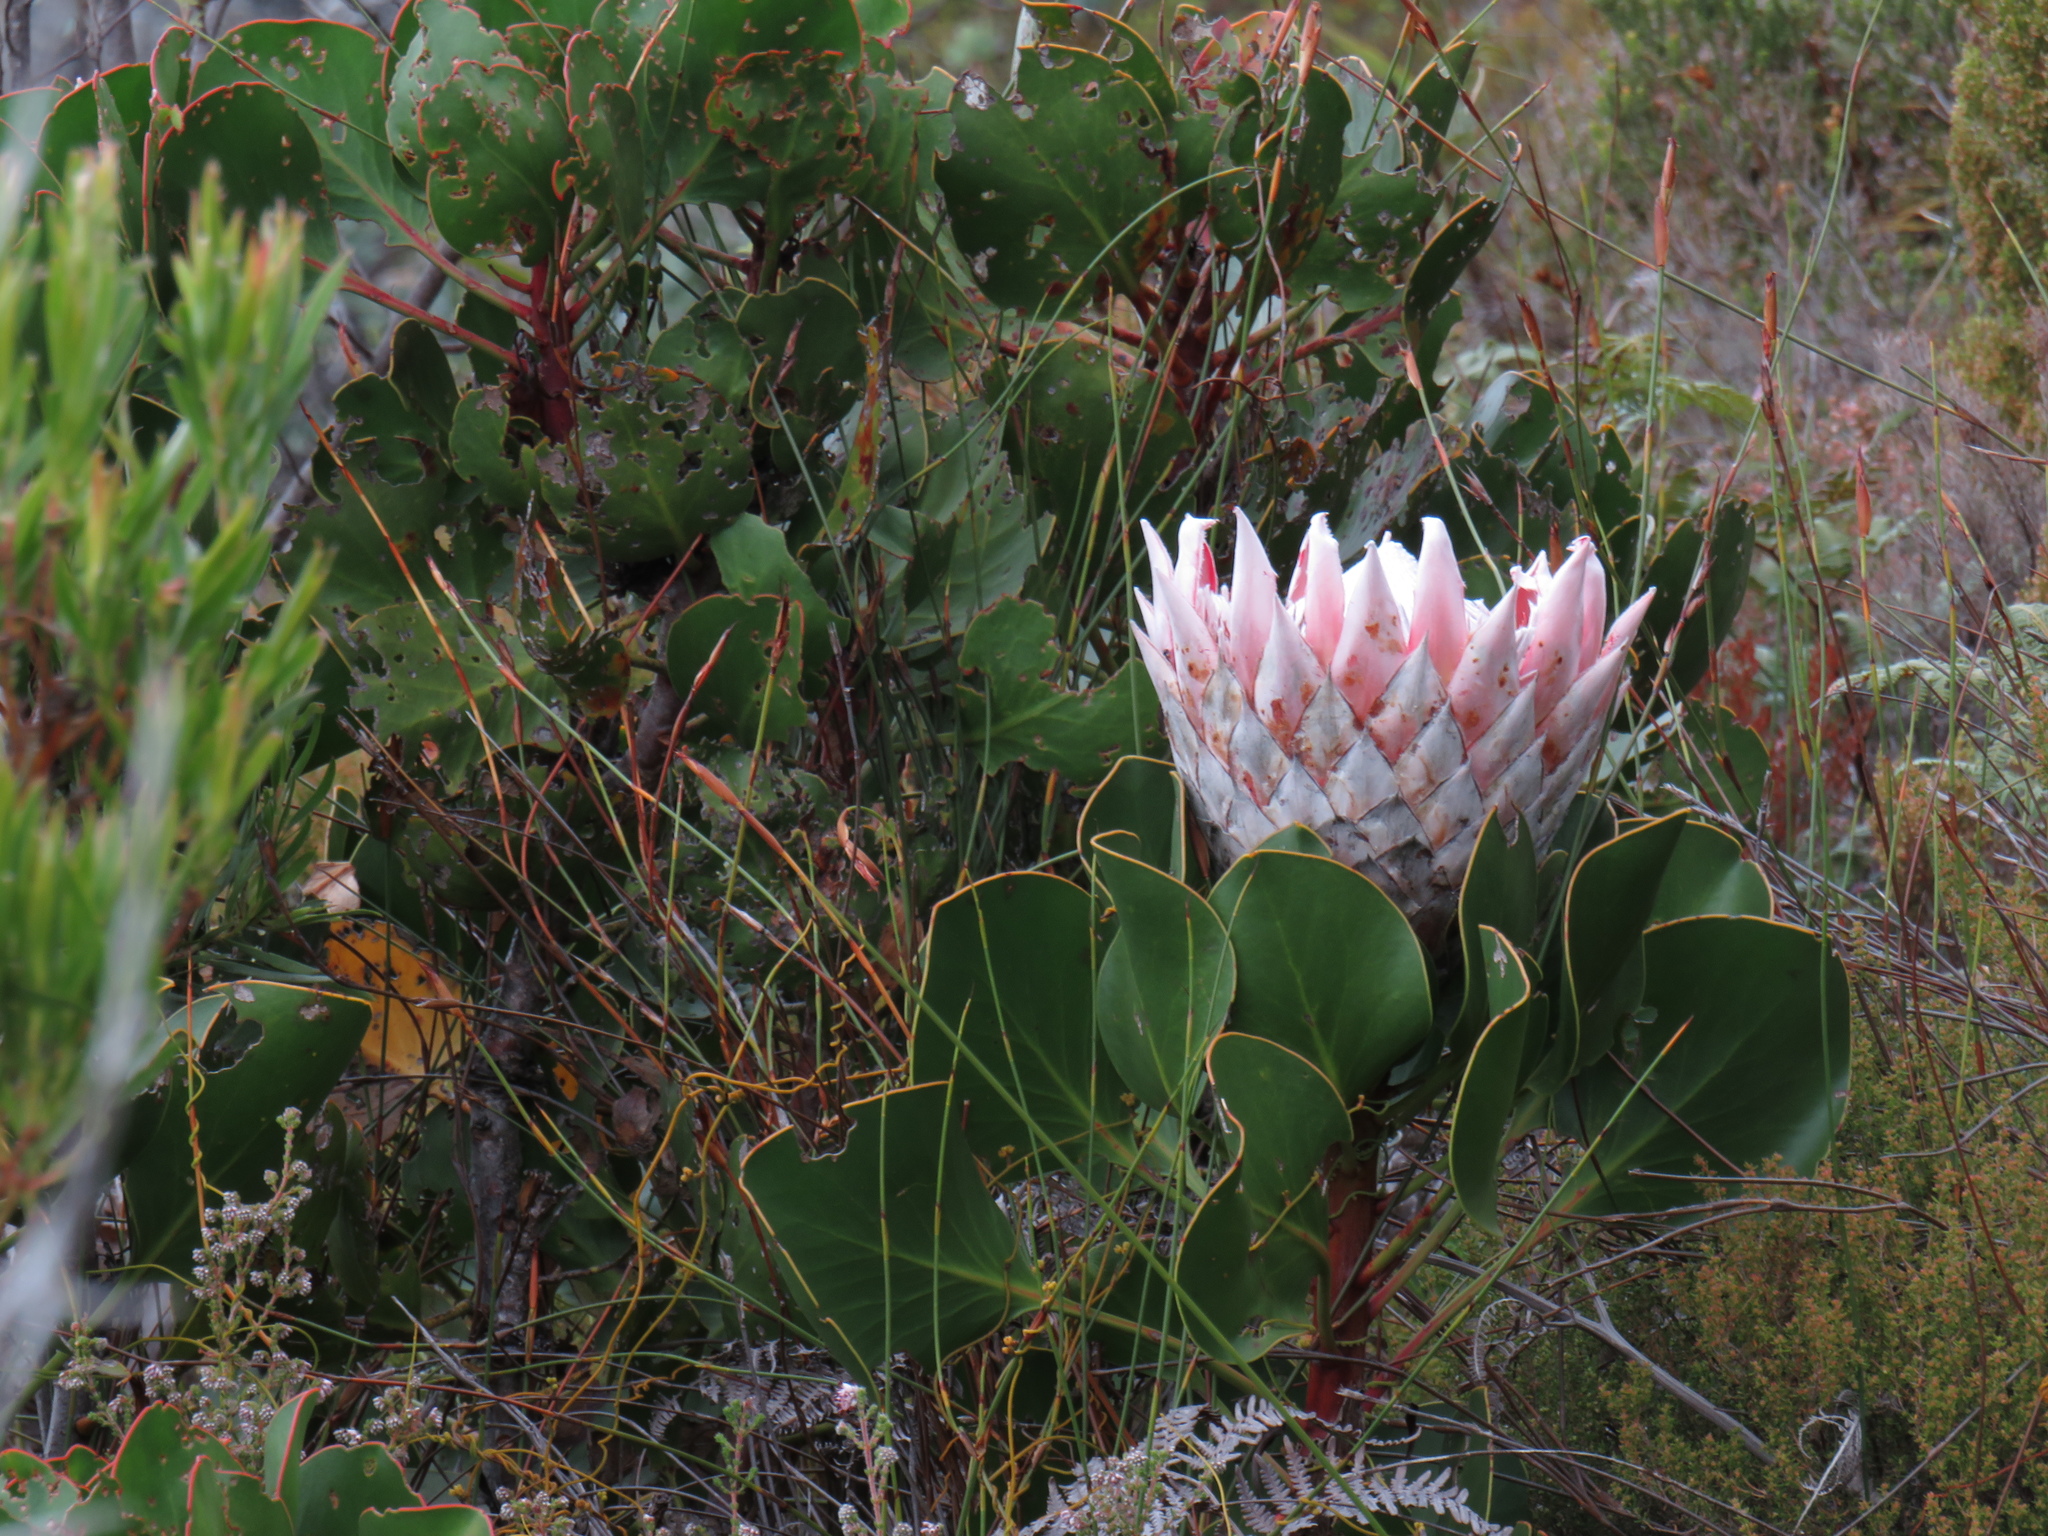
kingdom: Plantae
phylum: Tracheophyta
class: Magnoliopsida
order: Proteales
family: Proteaceae
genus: Protea
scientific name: Protea cynaroides
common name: King protea
